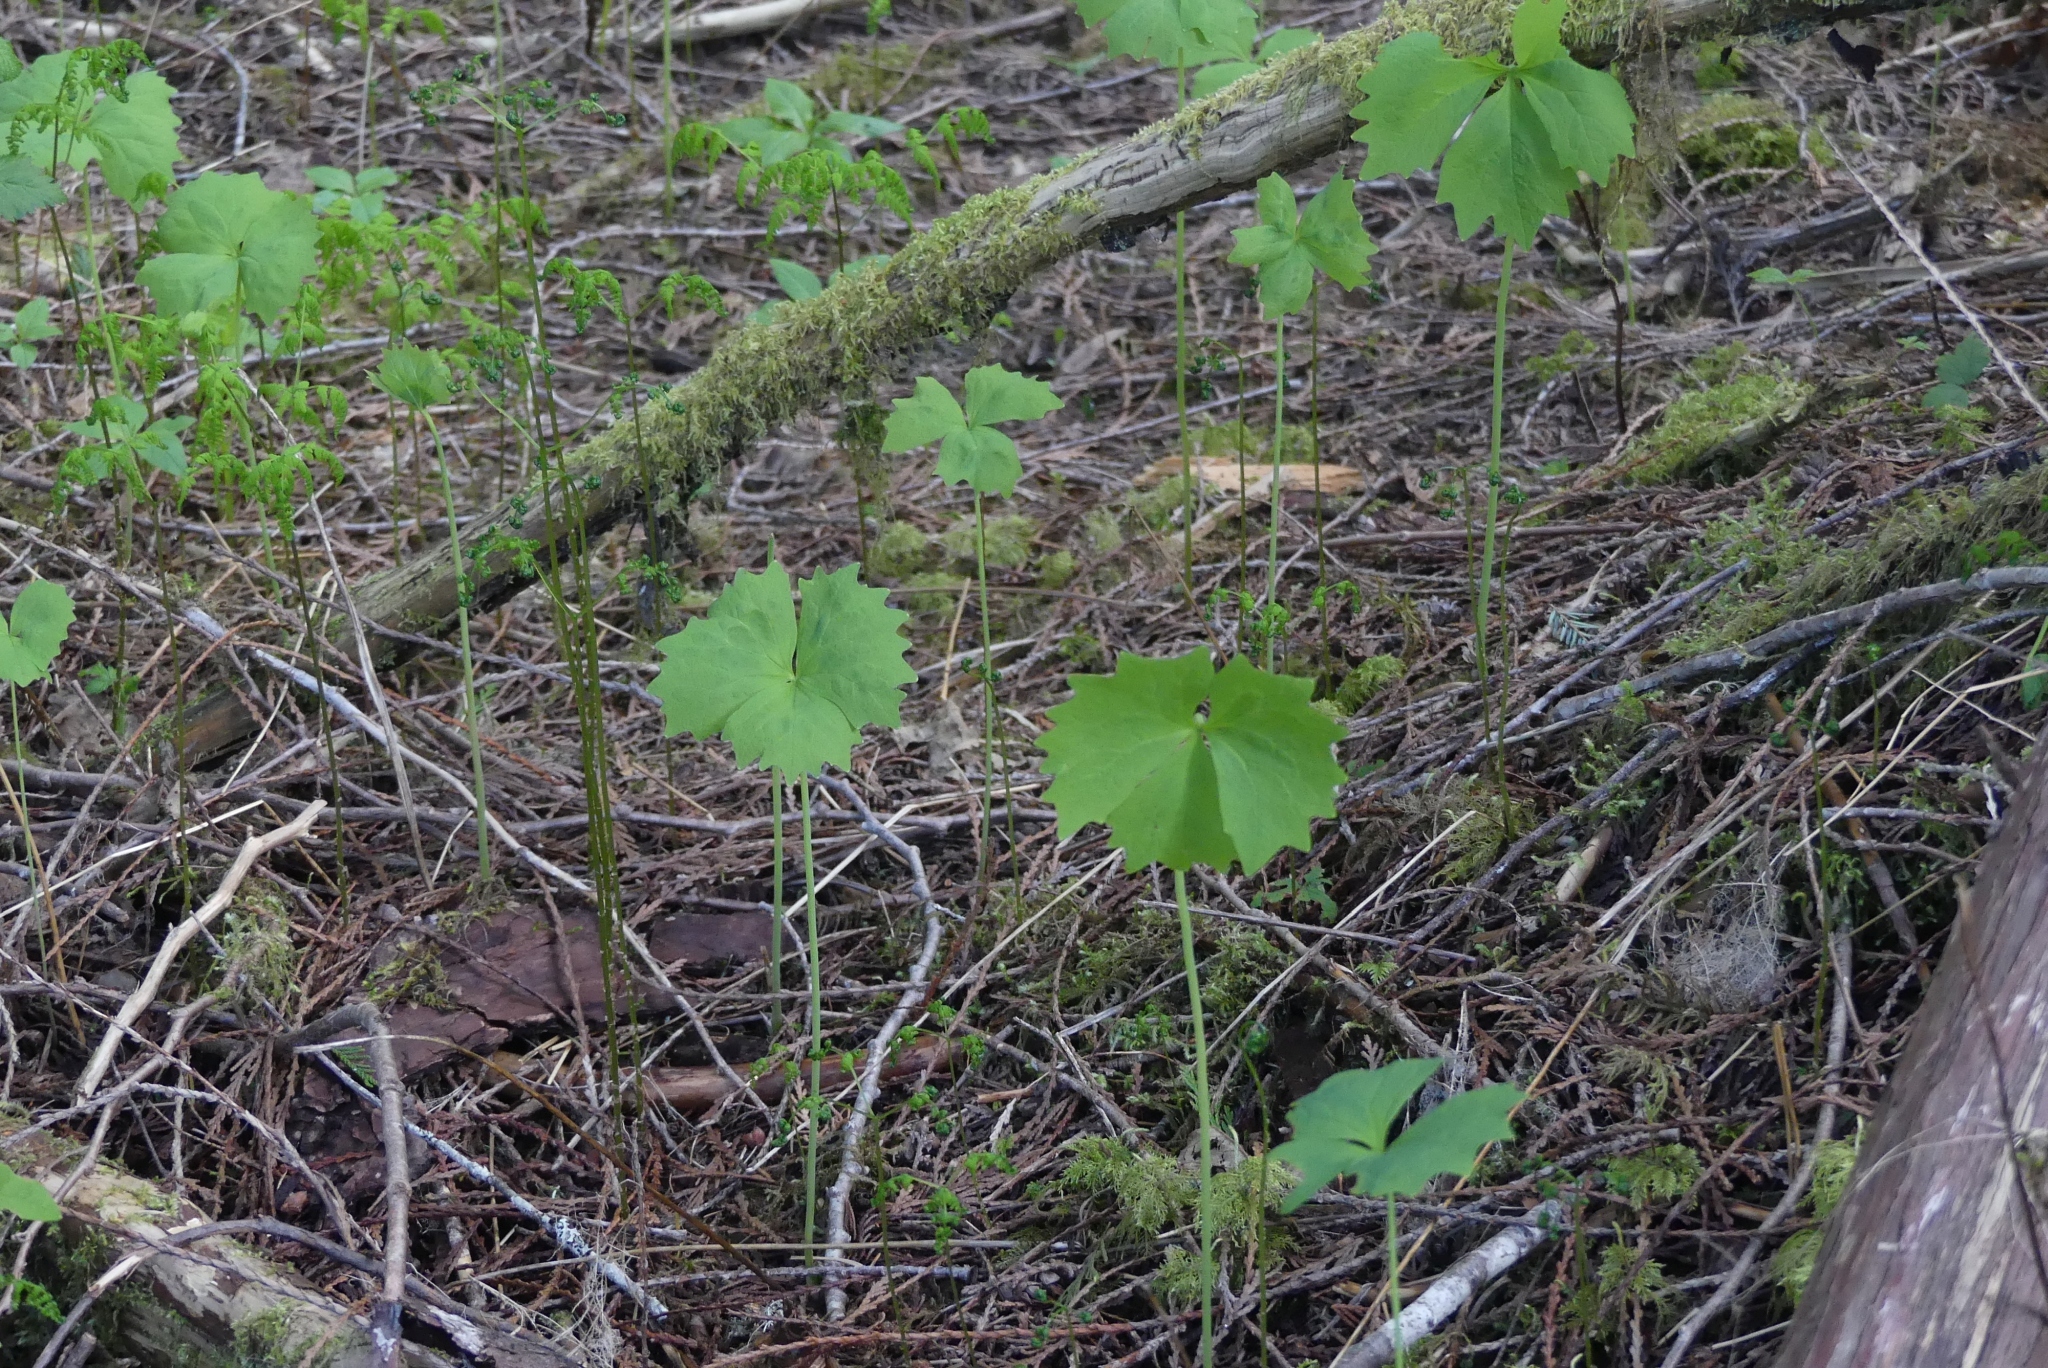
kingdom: Plantae
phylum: Tracheophyta
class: Magnoliopsida
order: Ranunculales
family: Berberidaceae
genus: Achlys
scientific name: Achlys triphylla
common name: Vanilla-leaf
